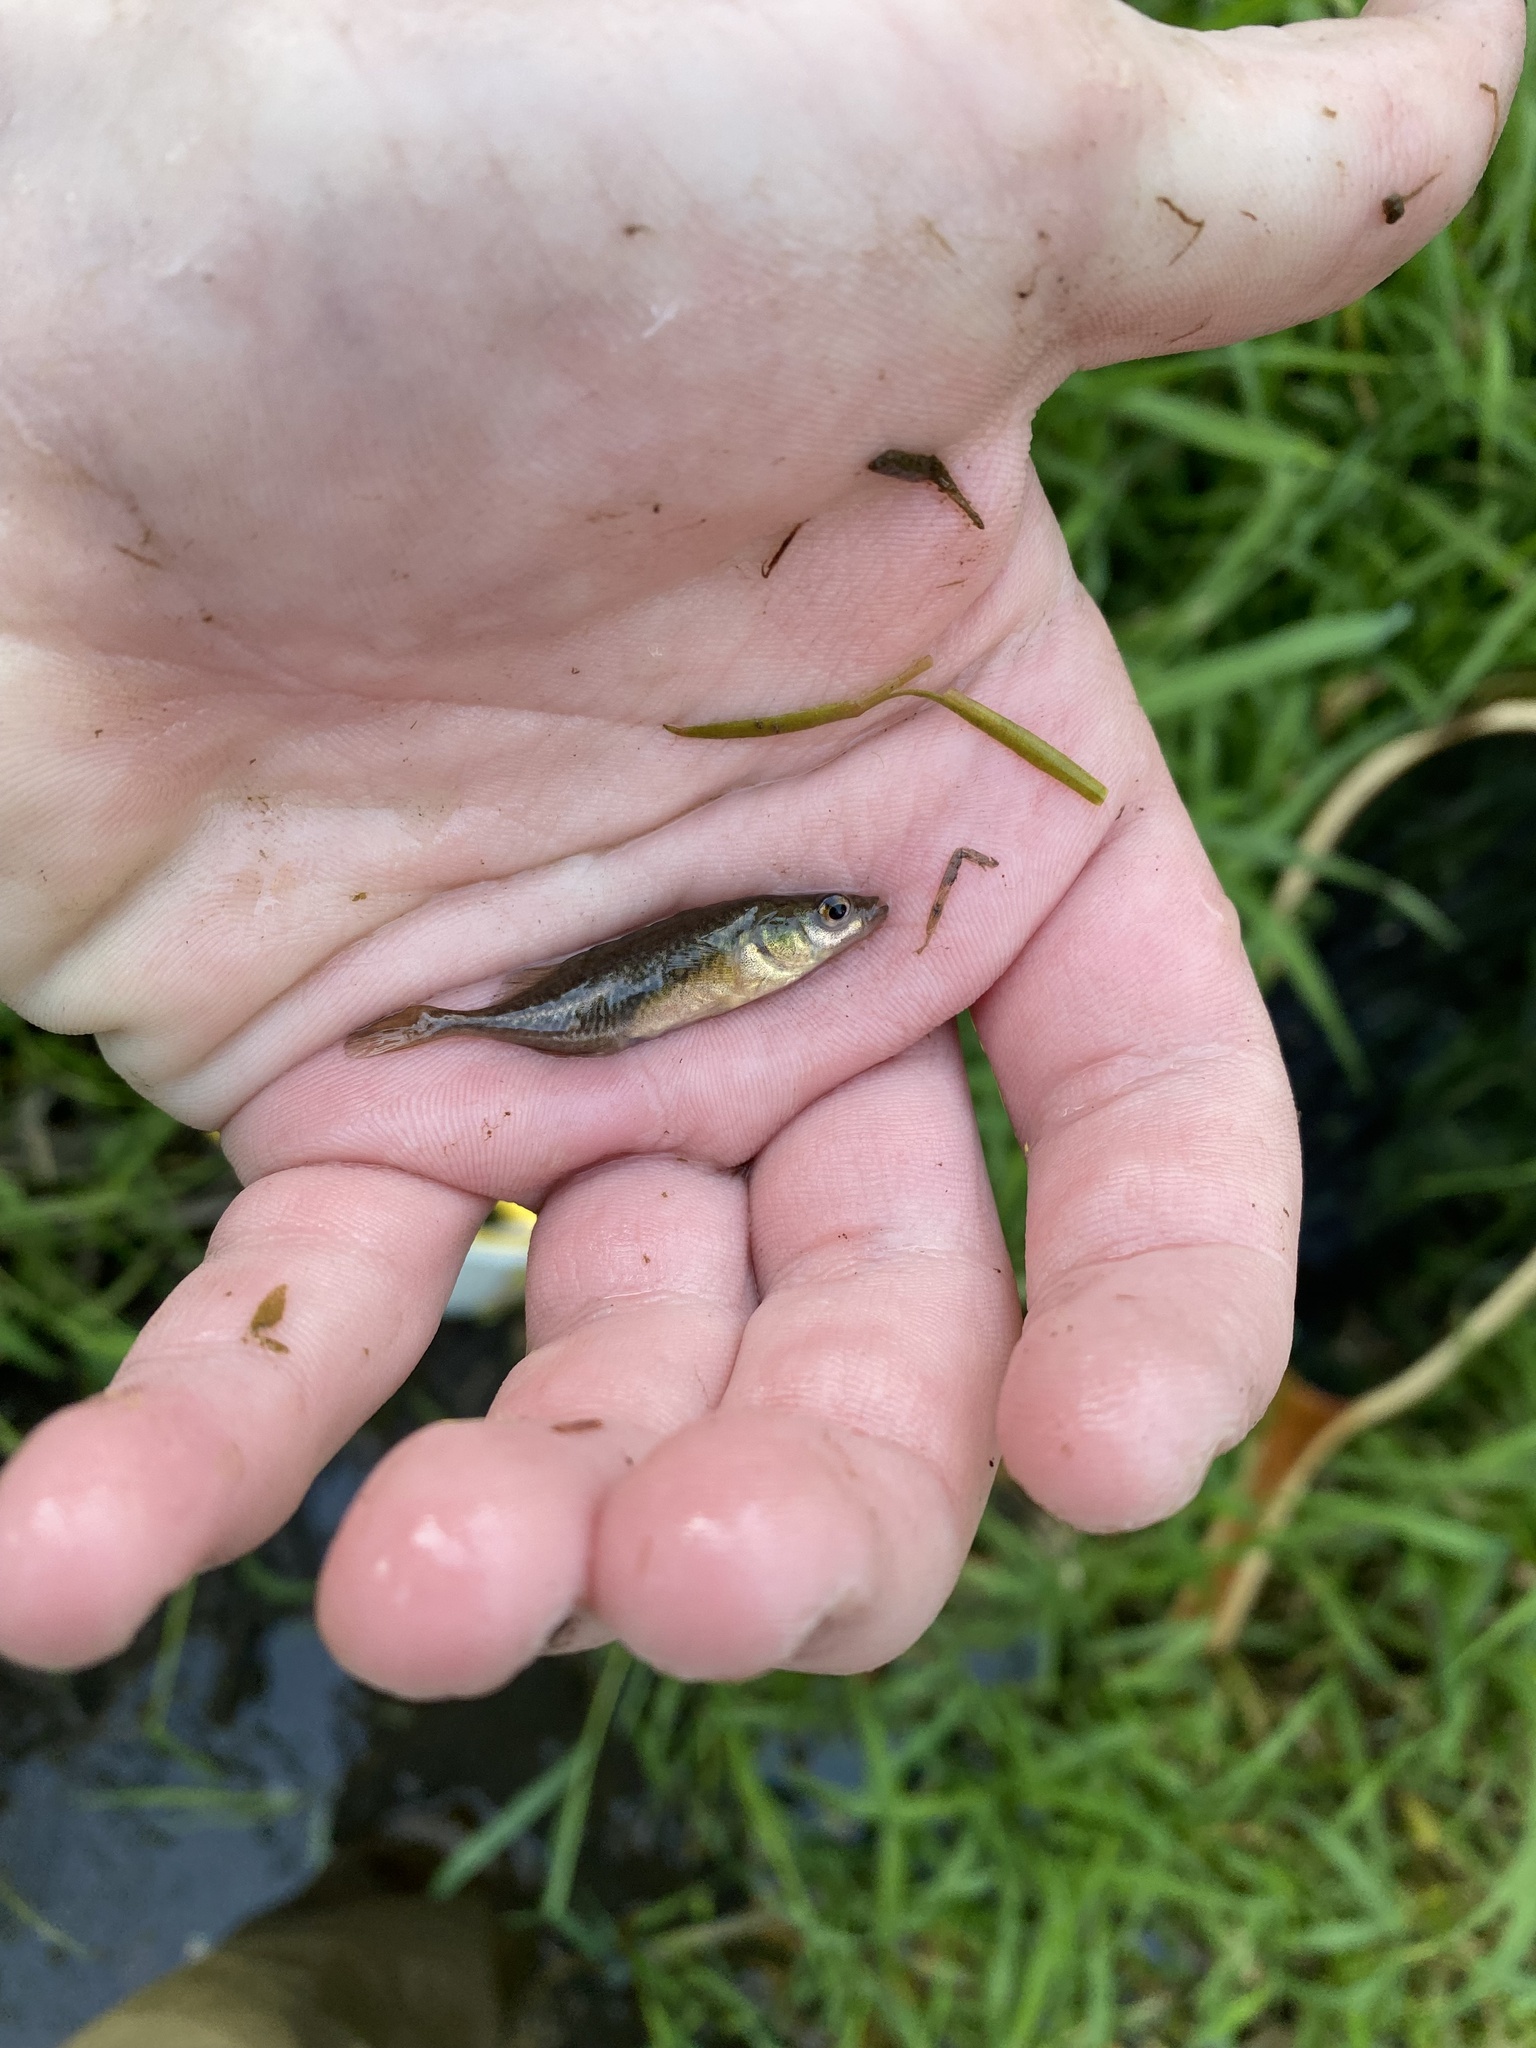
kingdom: Animalia
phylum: Chordata
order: Gasterosteiformes
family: Gasterosteidae
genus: Culaea
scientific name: Culaea inconstans
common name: Brook stickleback
